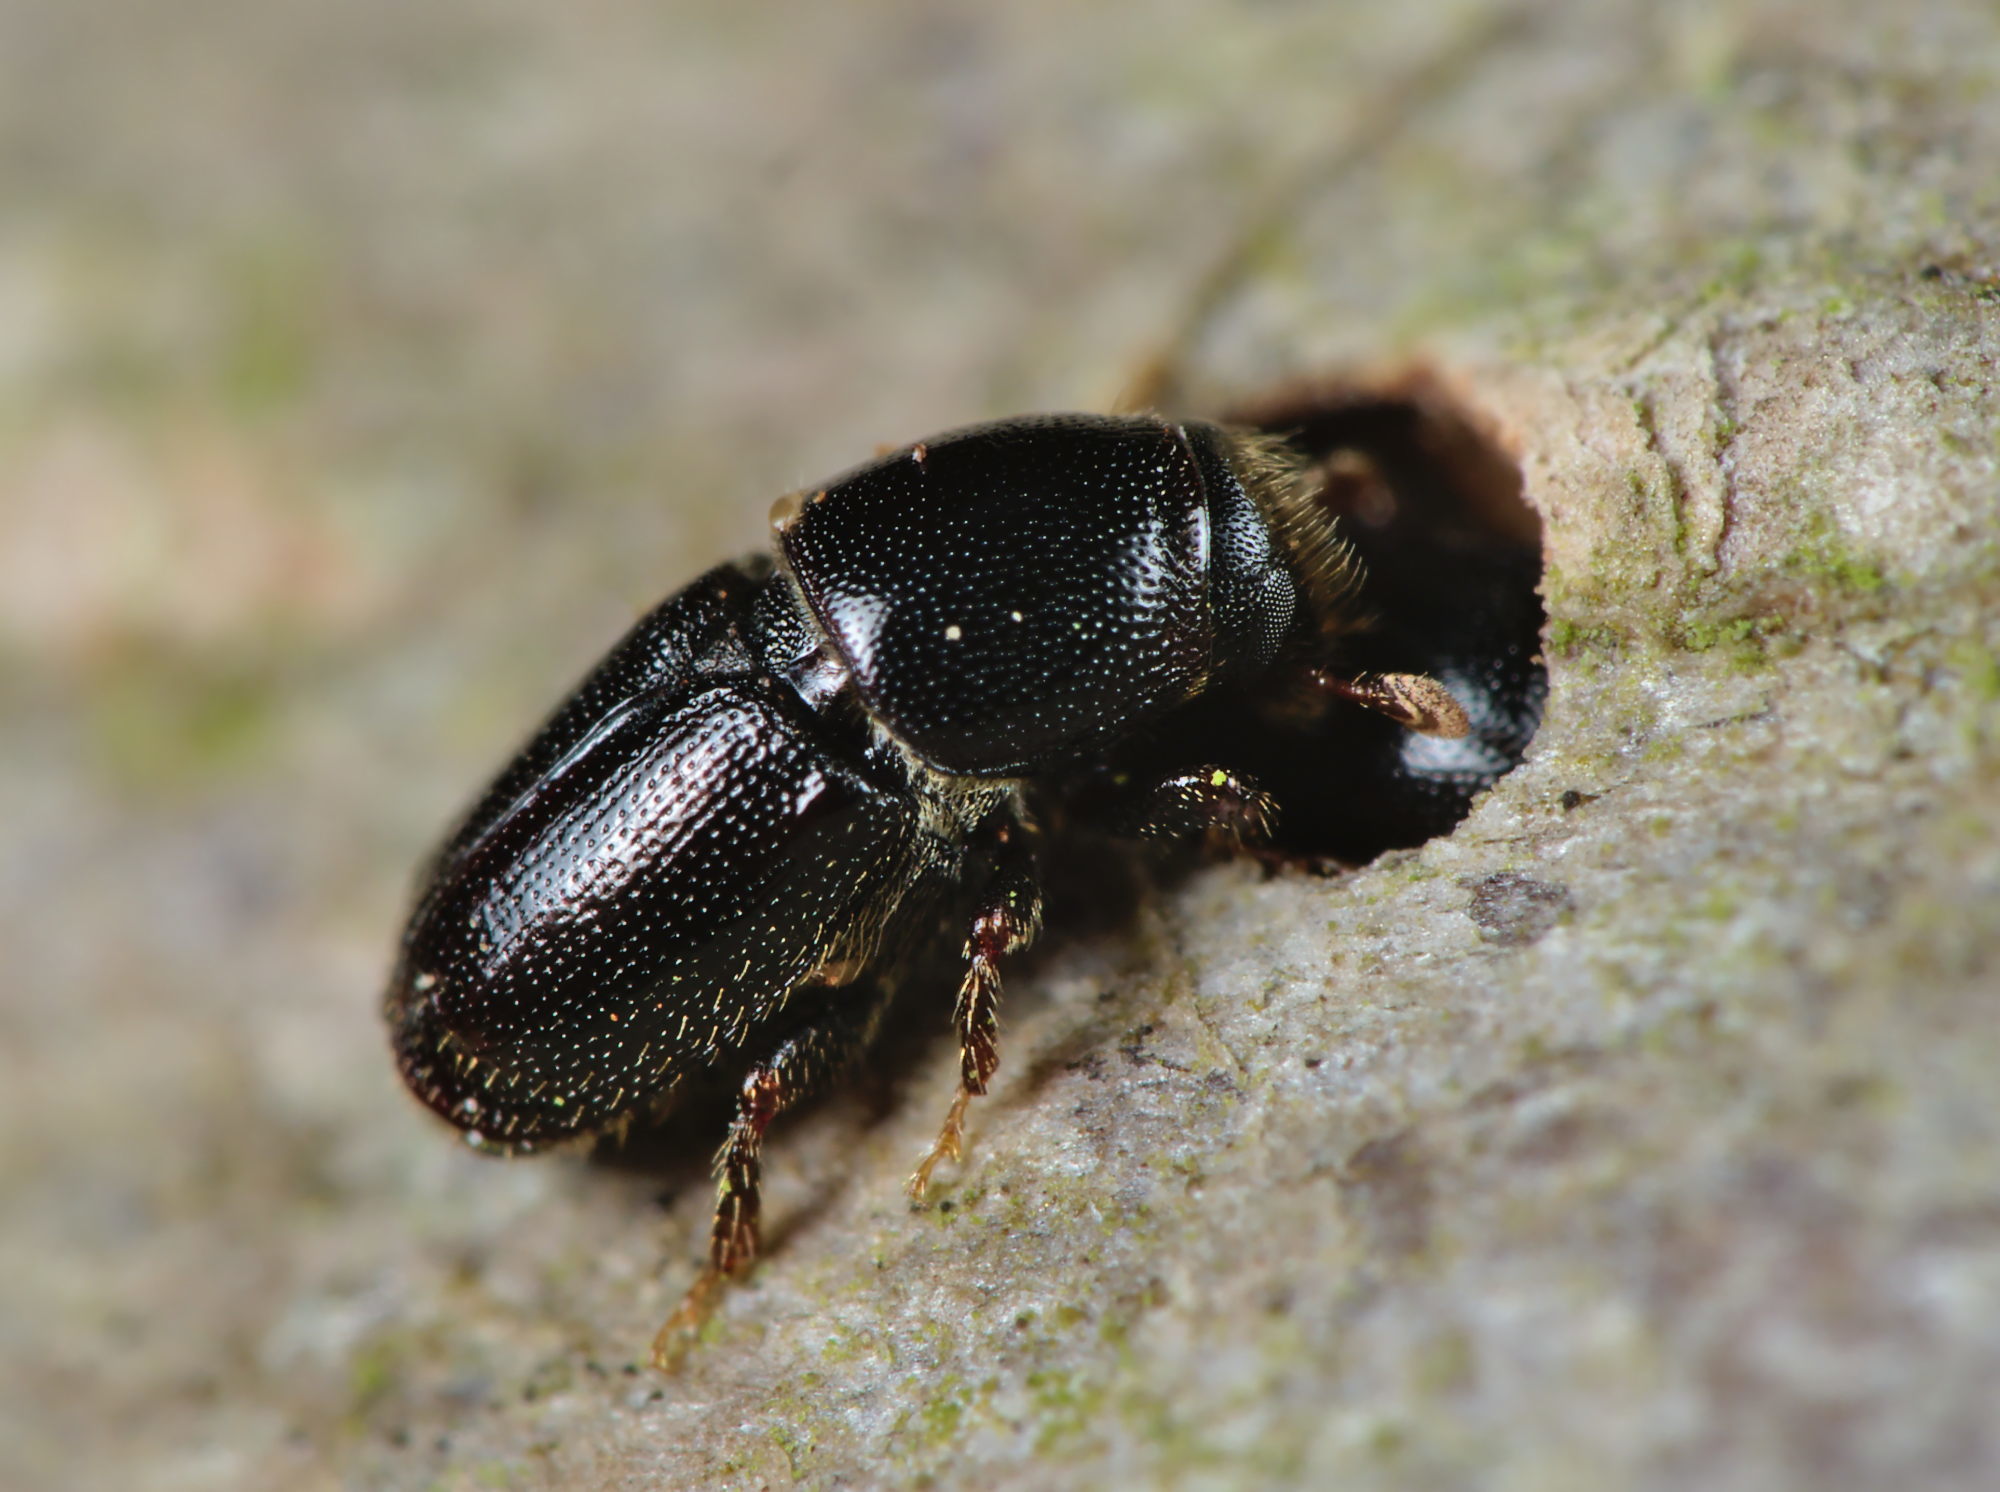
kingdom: Animalia
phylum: Arthropoda
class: Insecta
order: Coleoptera
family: Curculionidae
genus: Scolytus
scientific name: Scolytus mali
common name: Large fruit bark beetle
